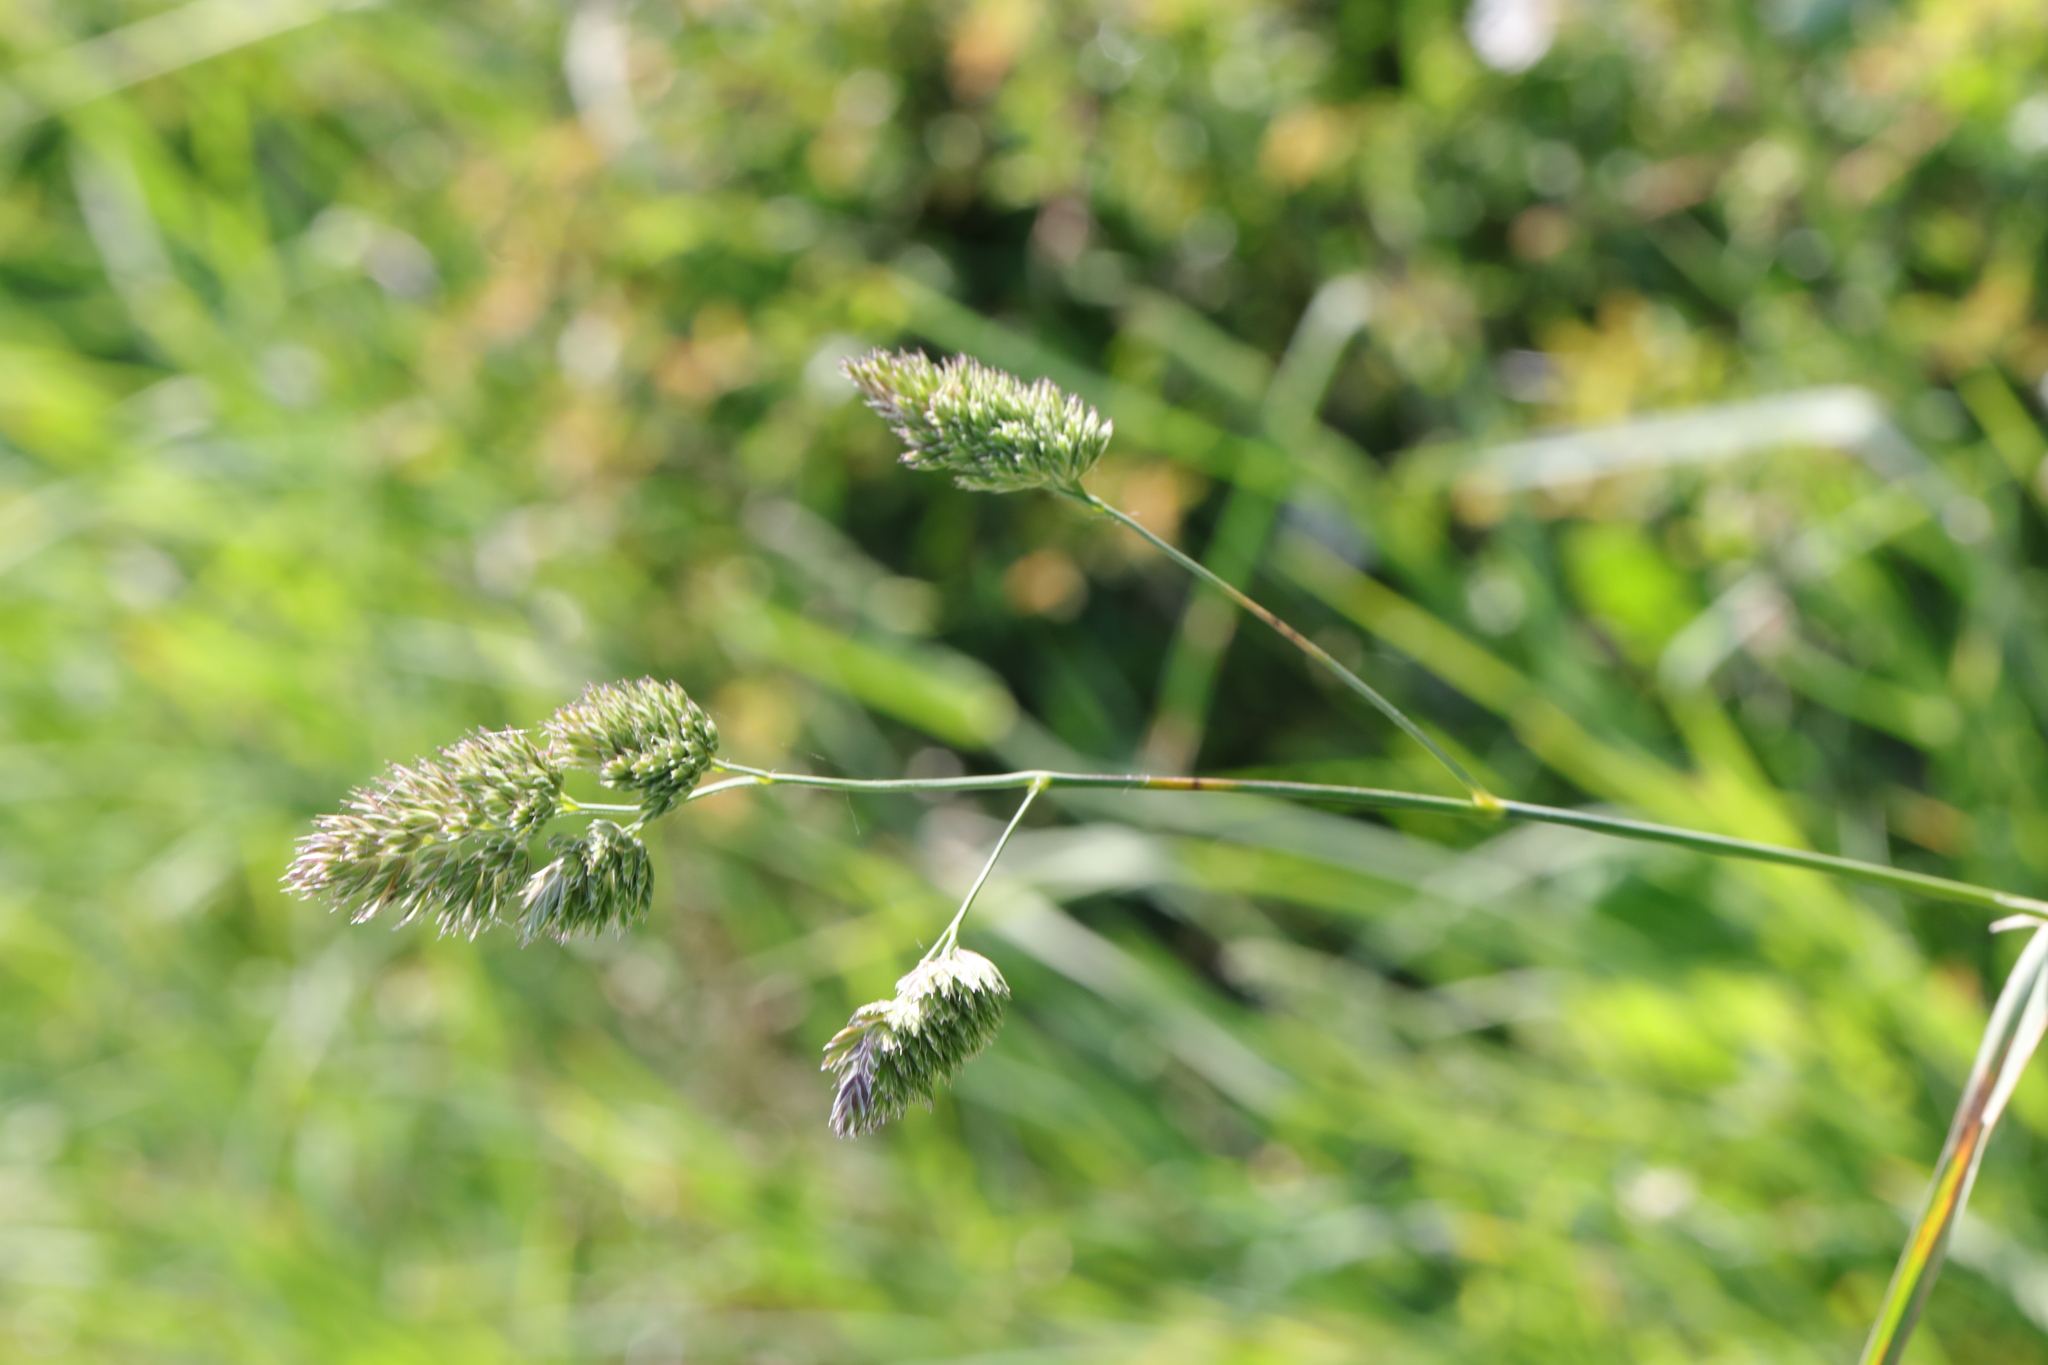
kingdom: Plantae
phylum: Tracheophyta
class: Liliopsida
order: Poales
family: Poaceae
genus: Dactylis
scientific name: Dactylis glomerata
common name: Orchardgrass
